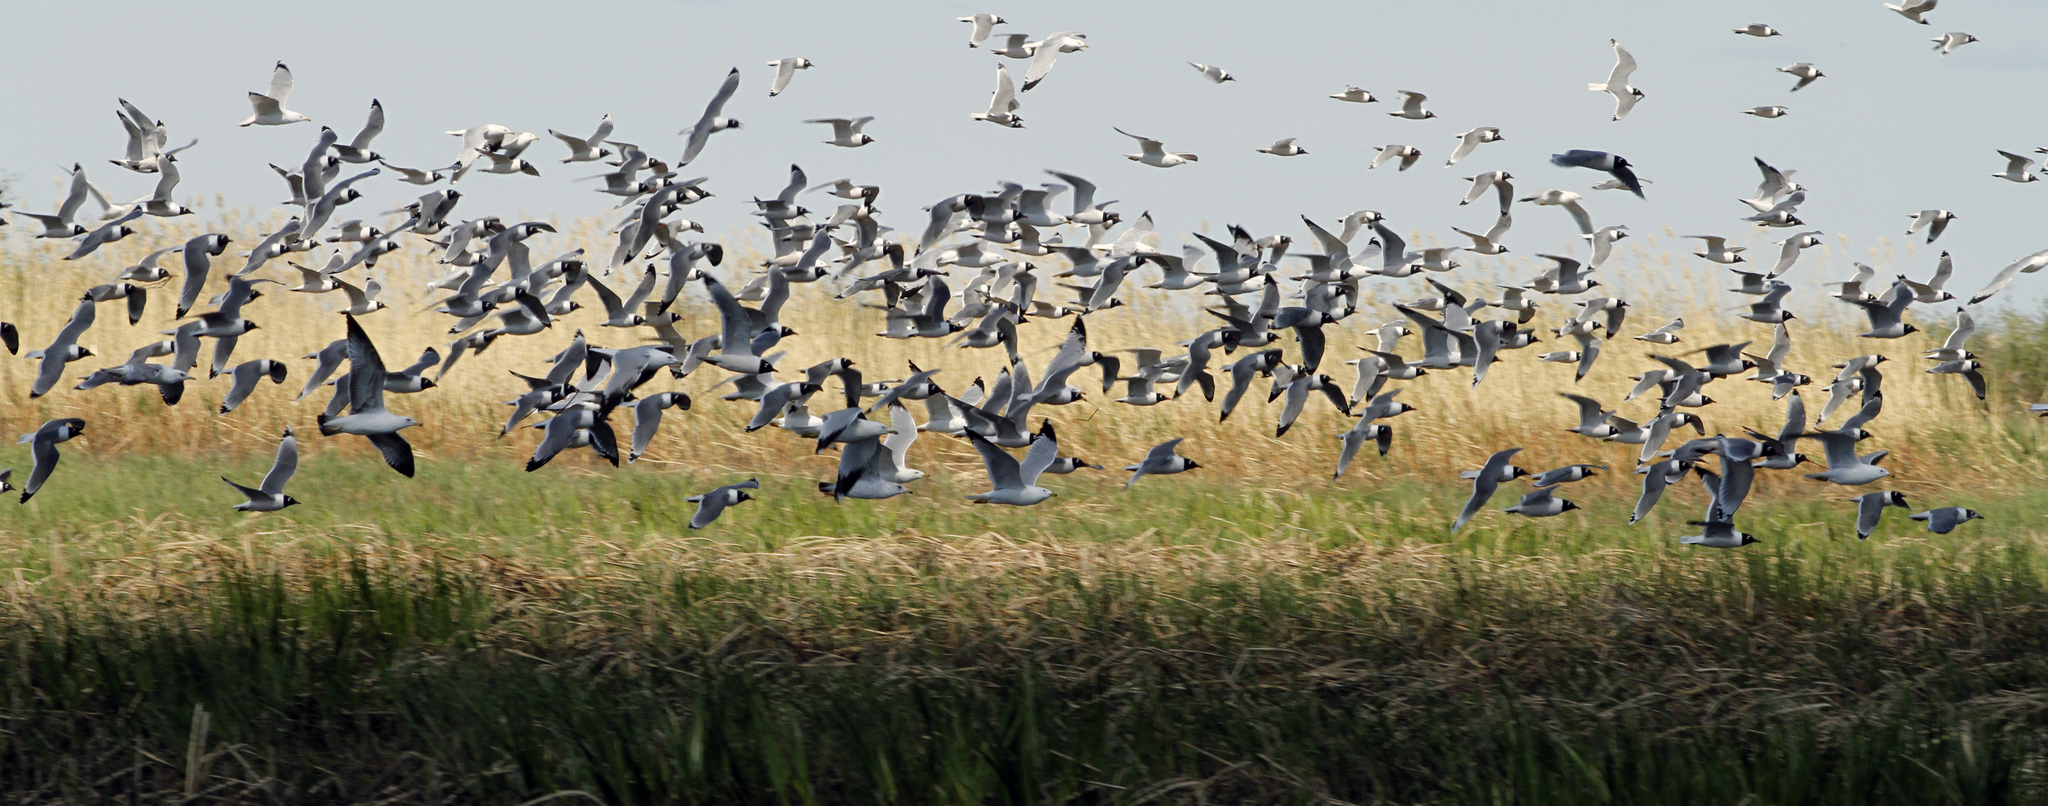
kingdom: Animalia
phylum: Chordata
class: Aves
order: Charadriiformes
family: Laridae
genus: Leucophaeus
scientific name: Leucophaeus pipixcan
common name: Franklin's gull
